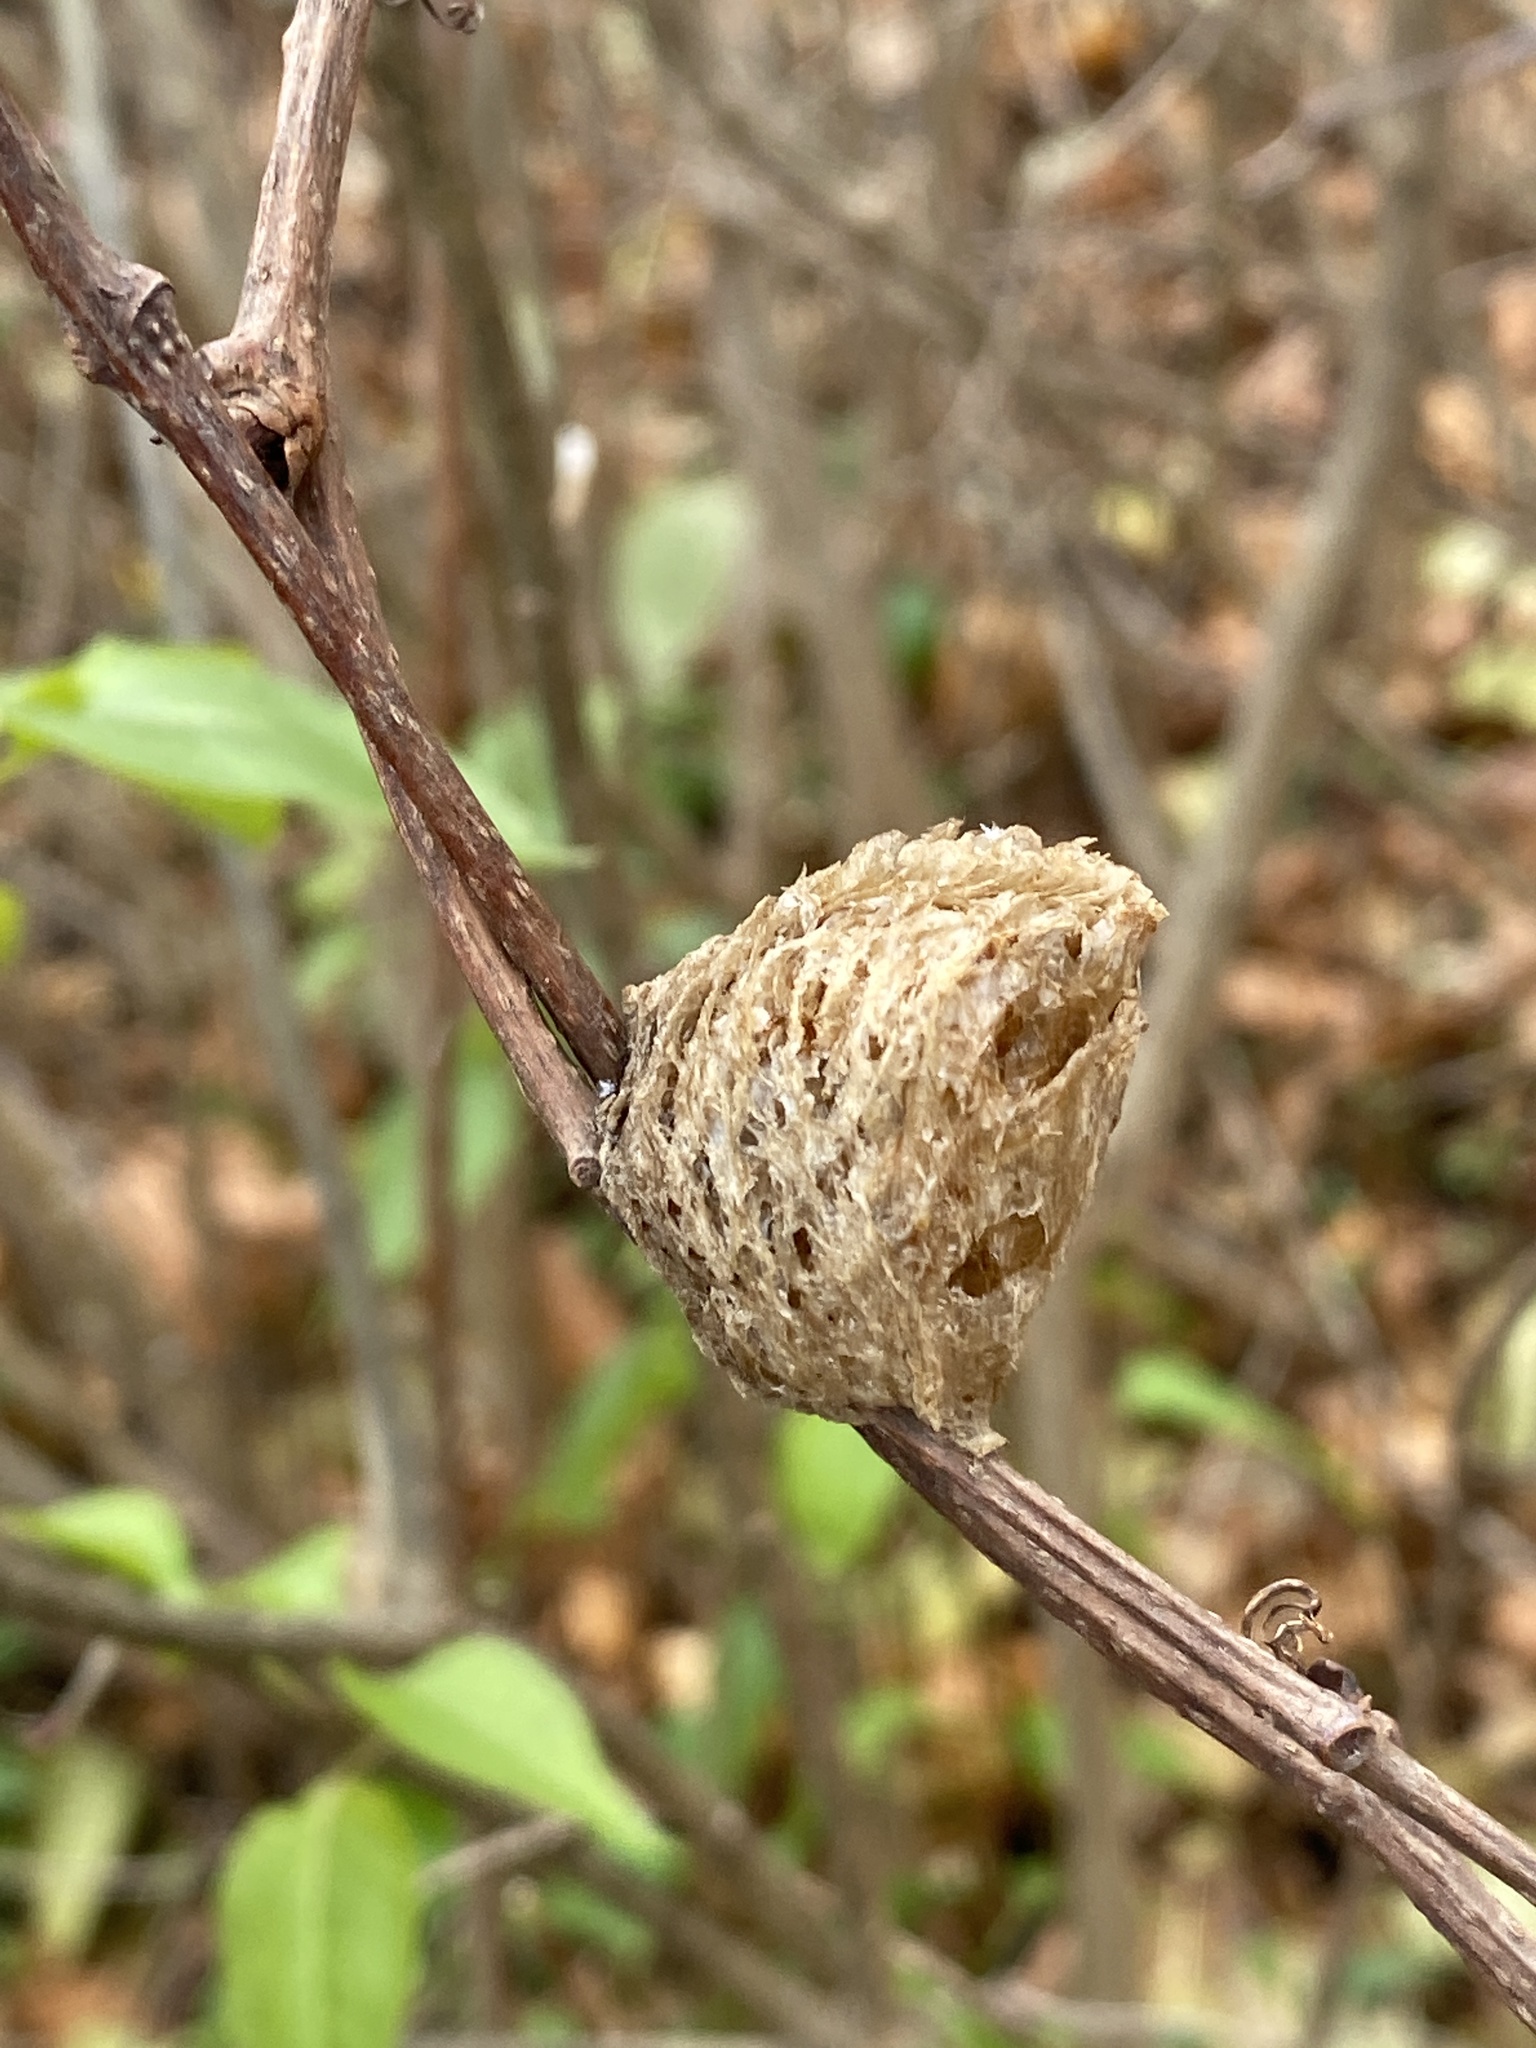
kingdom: Animalia
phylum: Arthropoda
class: Insecta
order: Mantodea
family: Mantidae
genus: Tenodera
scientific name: Tenodera sinensis
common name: Chinese mantis
